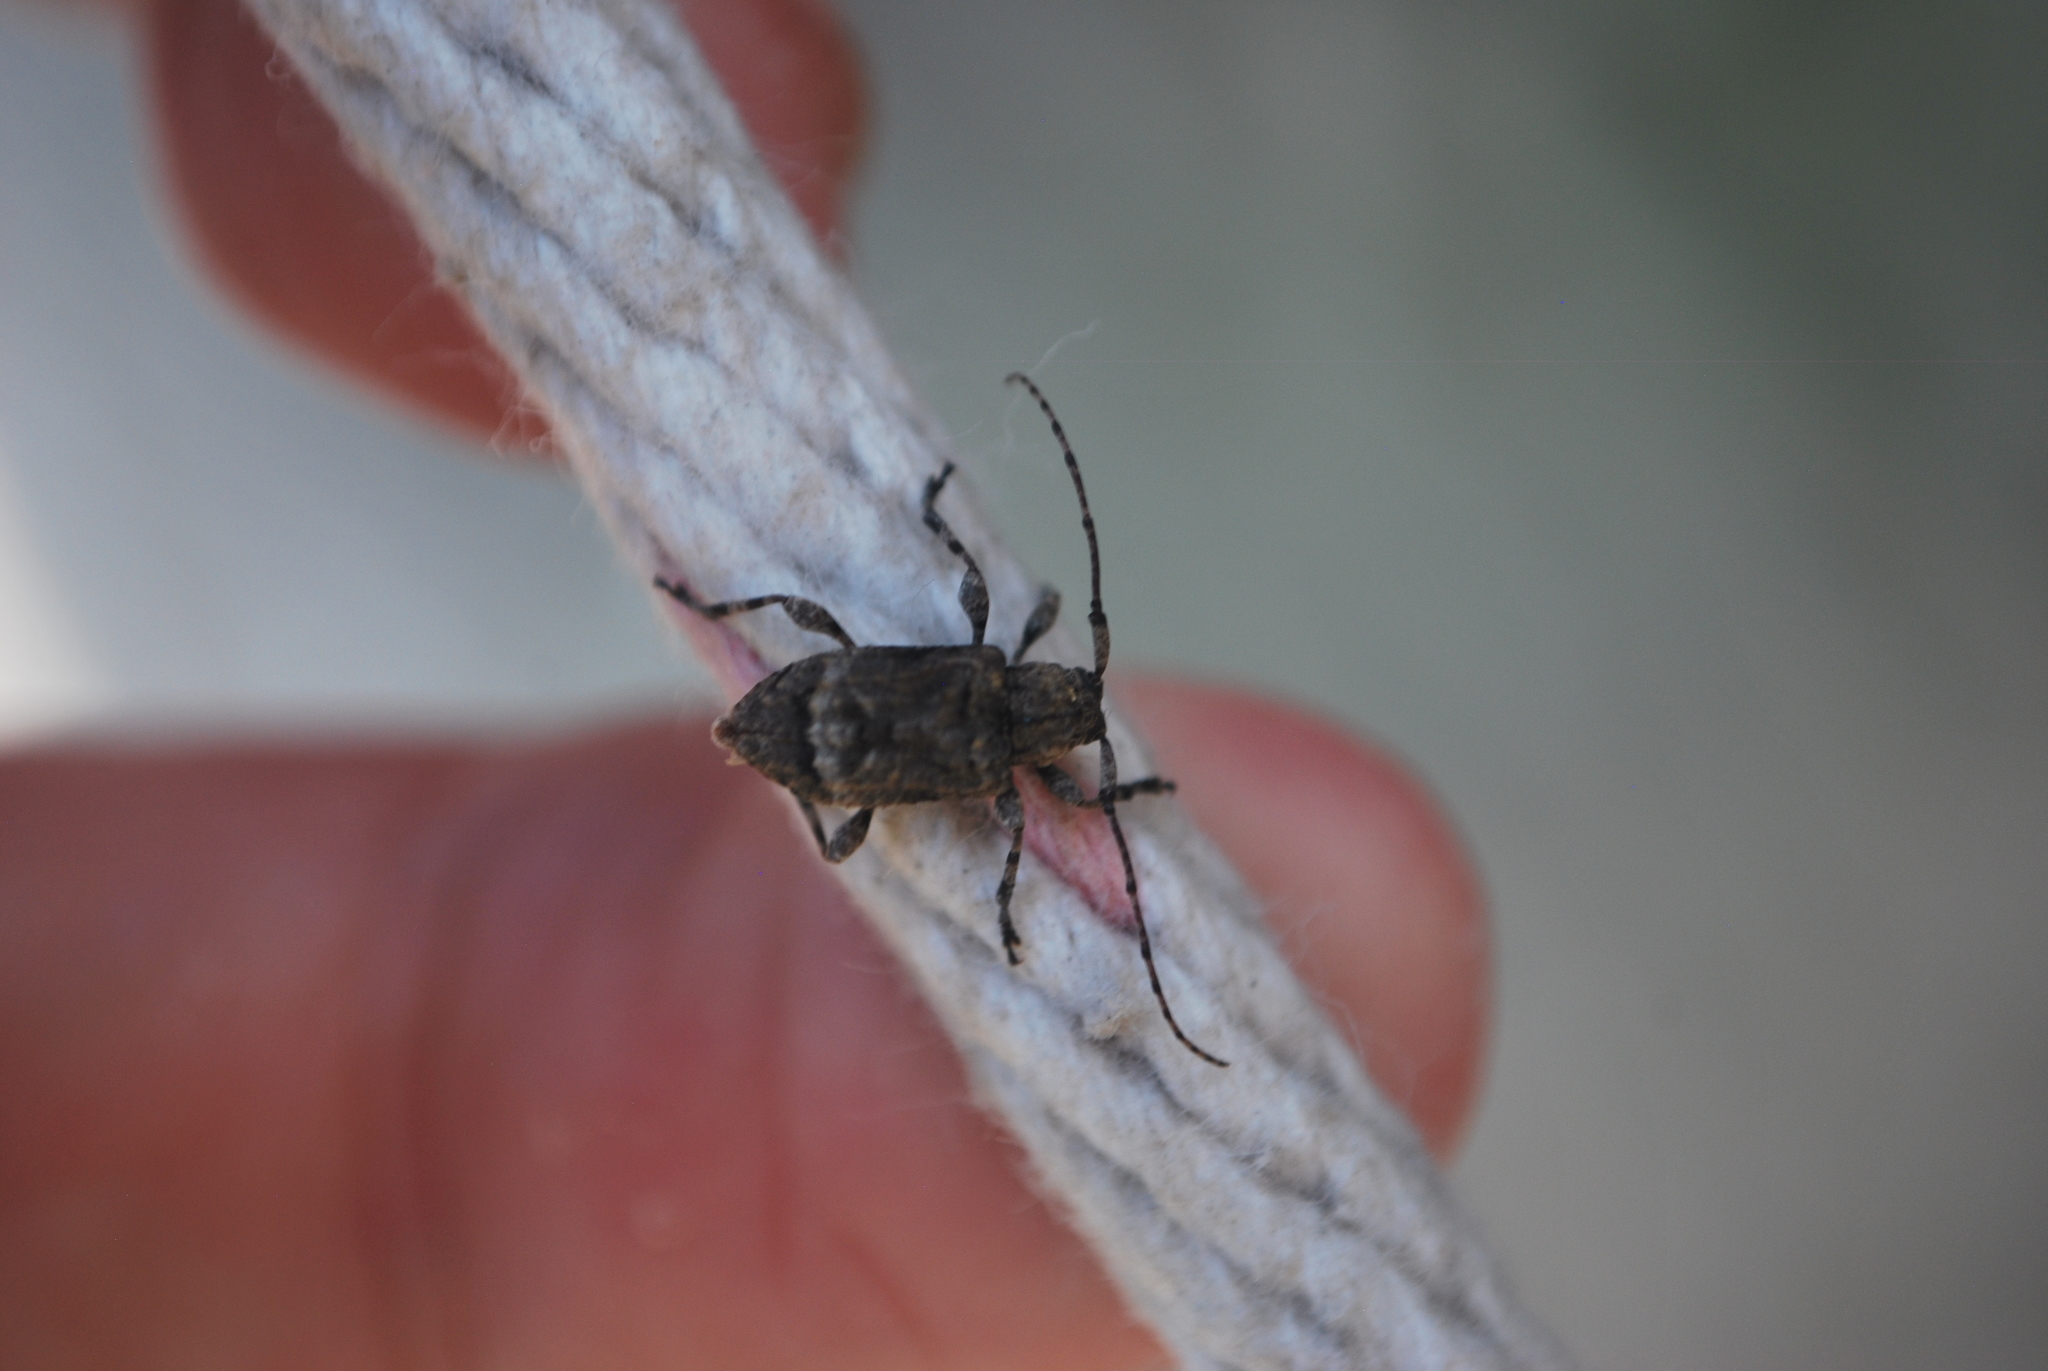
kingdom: Animalia
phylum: Arthropoda
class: Insecta
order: Coleoptera
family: Cerambycidae
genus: Leptostylus
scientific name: Leptostylus transversus
